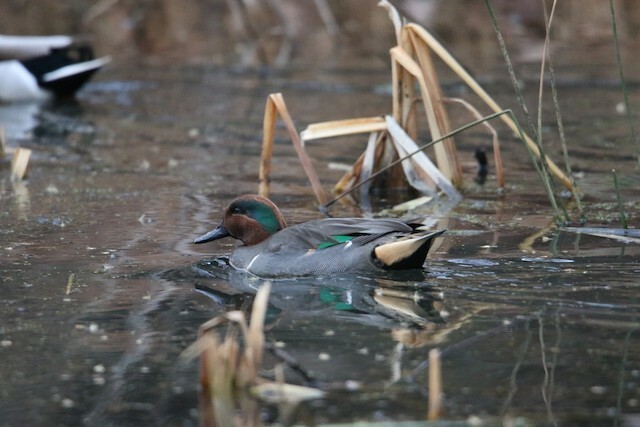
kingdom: Animalia
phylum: Chordata
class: Aves
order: Anseriformes
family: Anatidae
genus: Anas
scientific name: Anas crecca
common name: Eurasian teal
